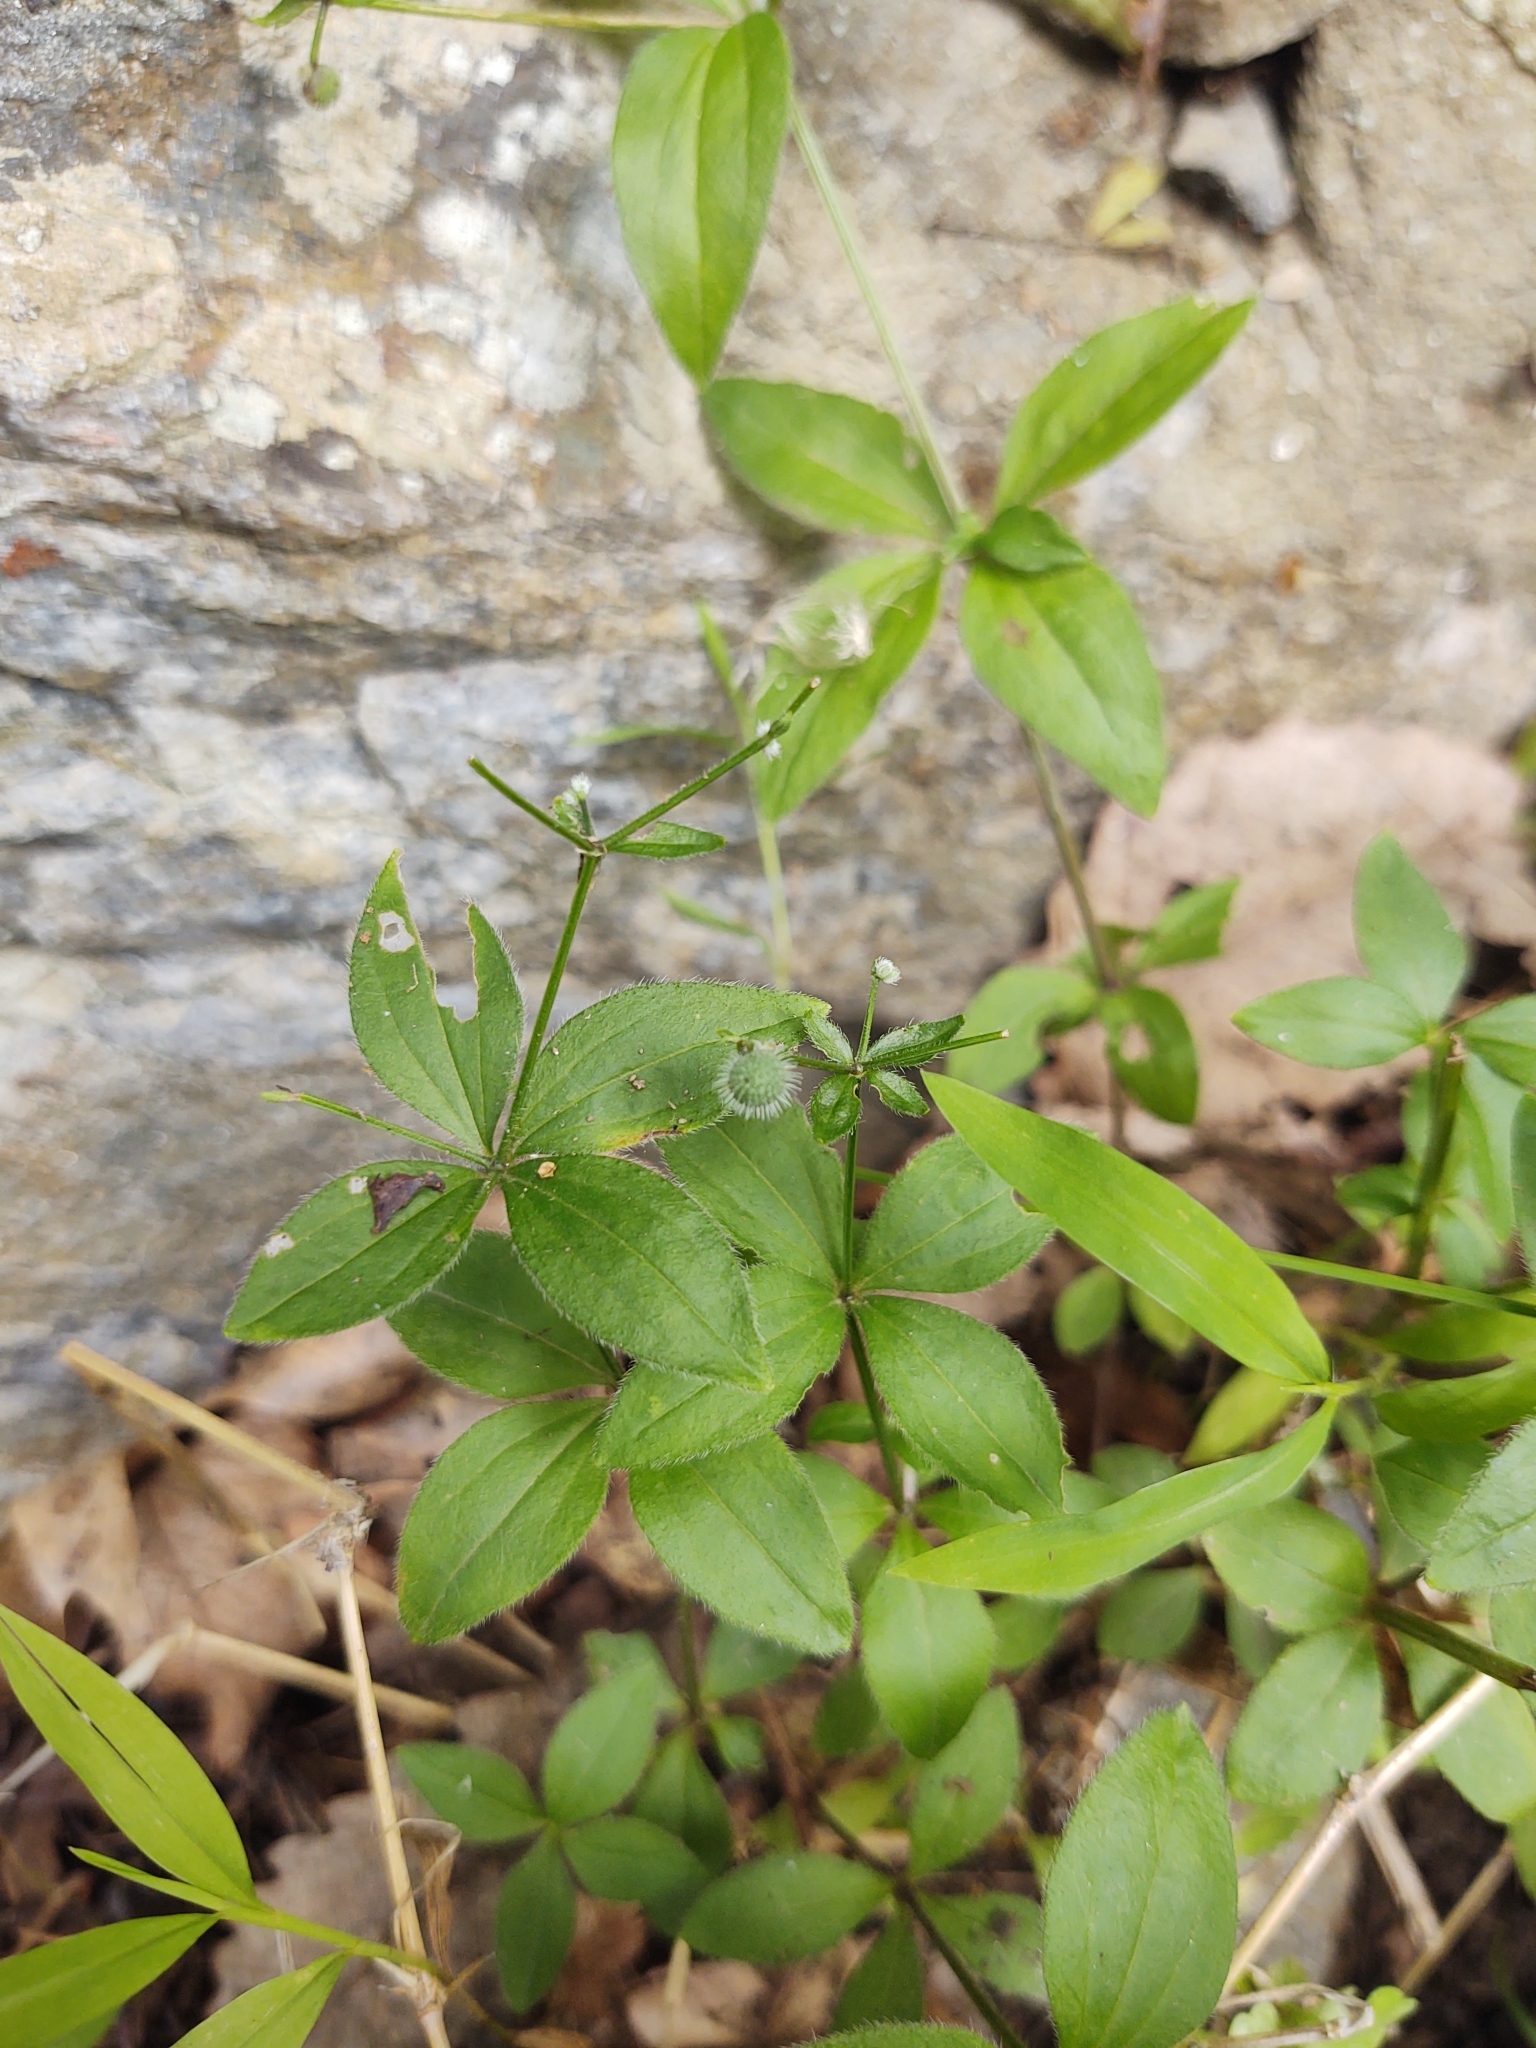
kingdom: Plantae
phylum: Tracheophyta
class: Magnoliopsida
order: Gentianales
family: Rubiaceae
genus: Galium
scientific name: Galium circaezans
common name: Forest bedstraw
